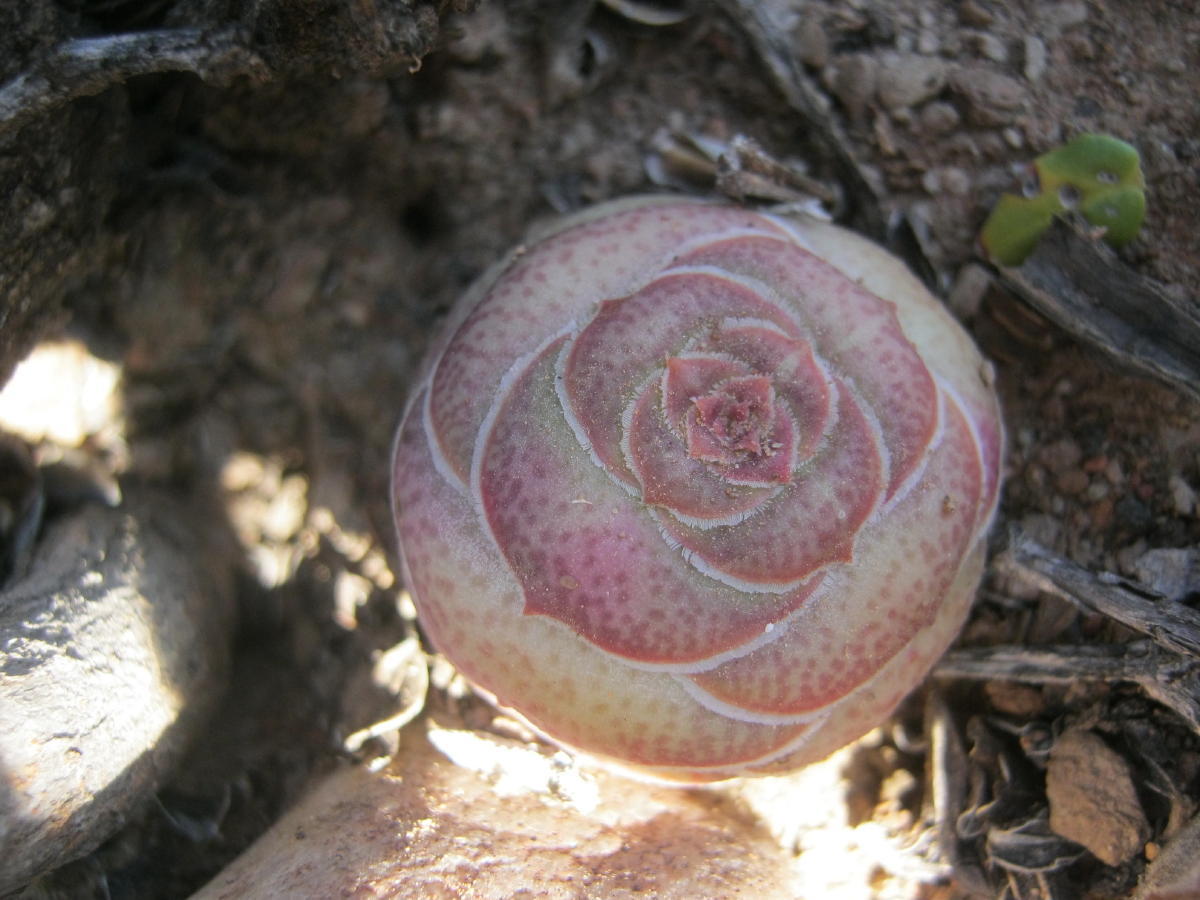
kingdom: Plantae
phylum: Tracheophyta
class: Magnoliopsida
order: Saxifragales
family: Crassulaceae
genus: Crassula
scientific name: Crassula hemisphaerica
